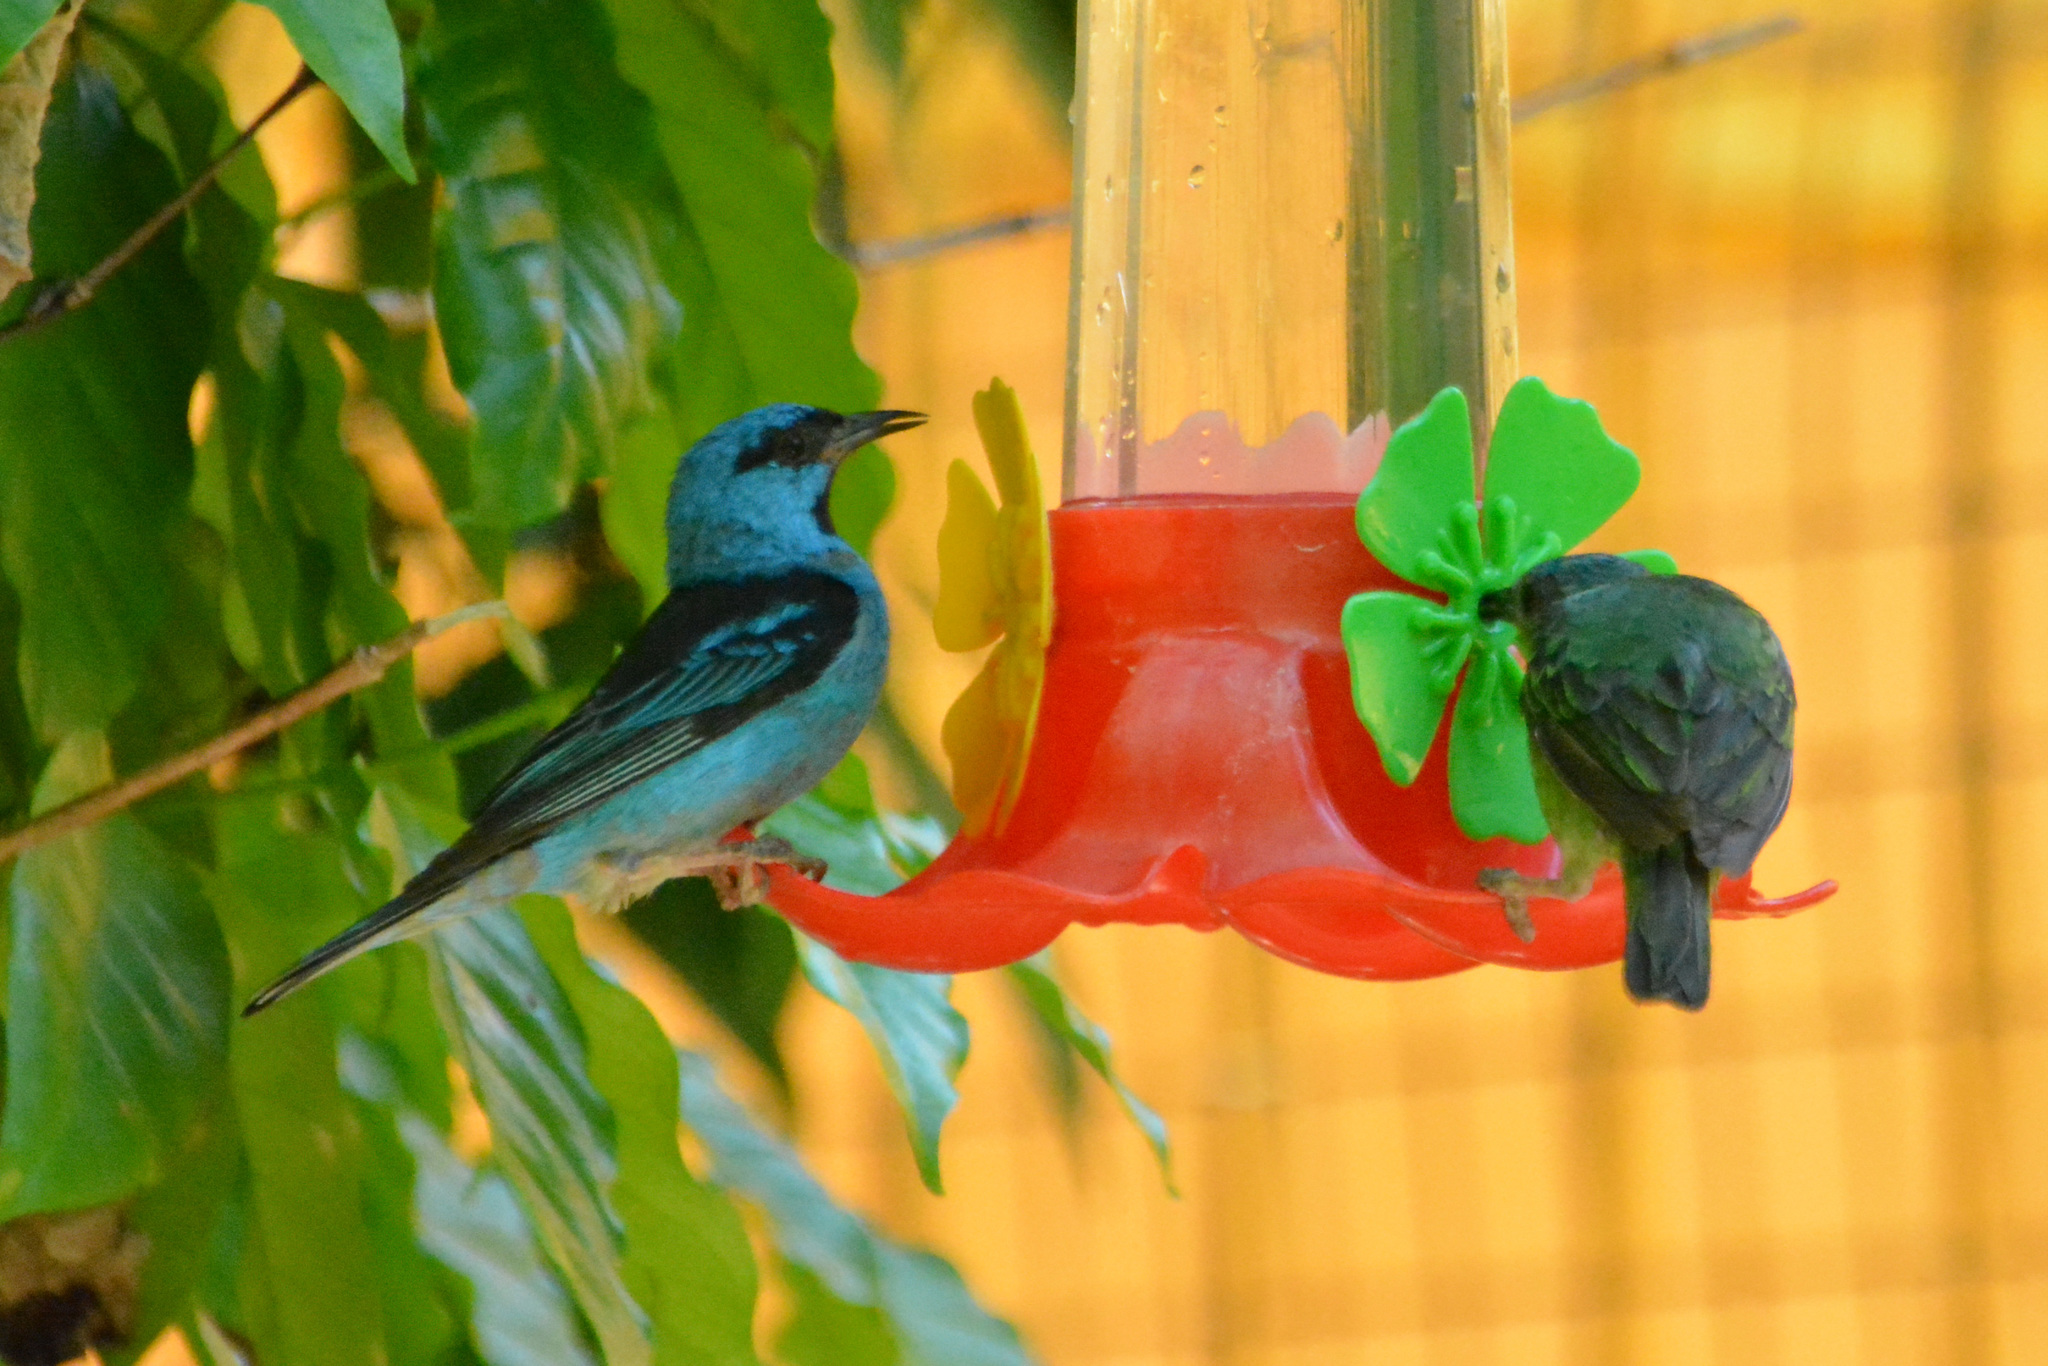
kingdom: Animalia
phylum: Chordata
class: Aves
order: Passeriformes
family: Thraupidae
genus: Dacnis
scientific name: Dacnis cayana
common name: Blue dacnis
